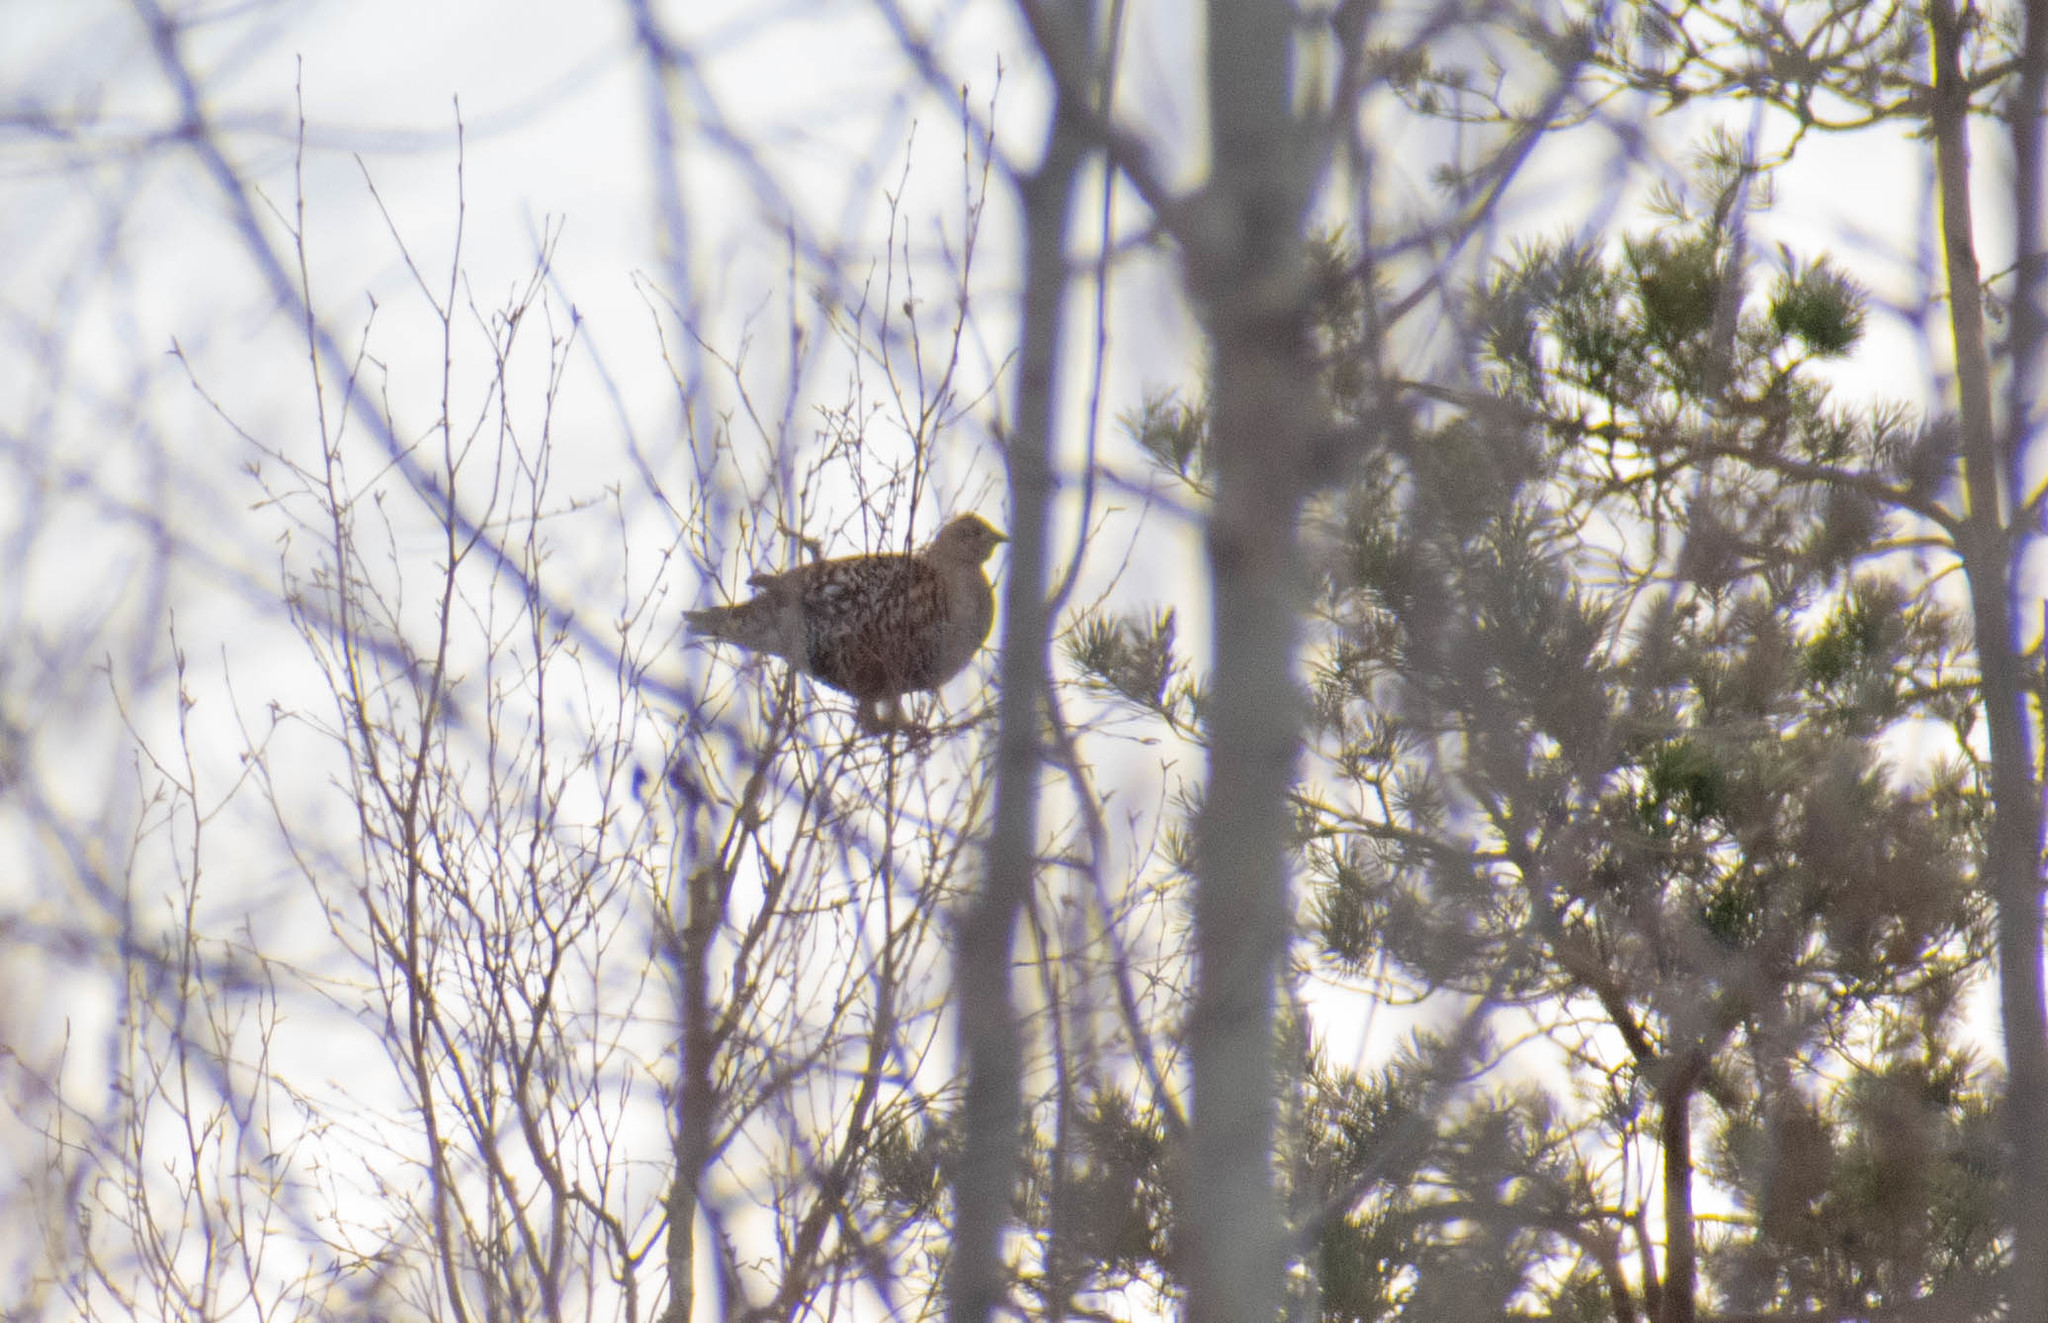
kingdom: Animalia
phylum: Chordata
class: Aves
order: Galliformes
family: Phasianidae
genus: Lyrurus
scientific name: Lyrurus tetrix
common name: Black grouse
